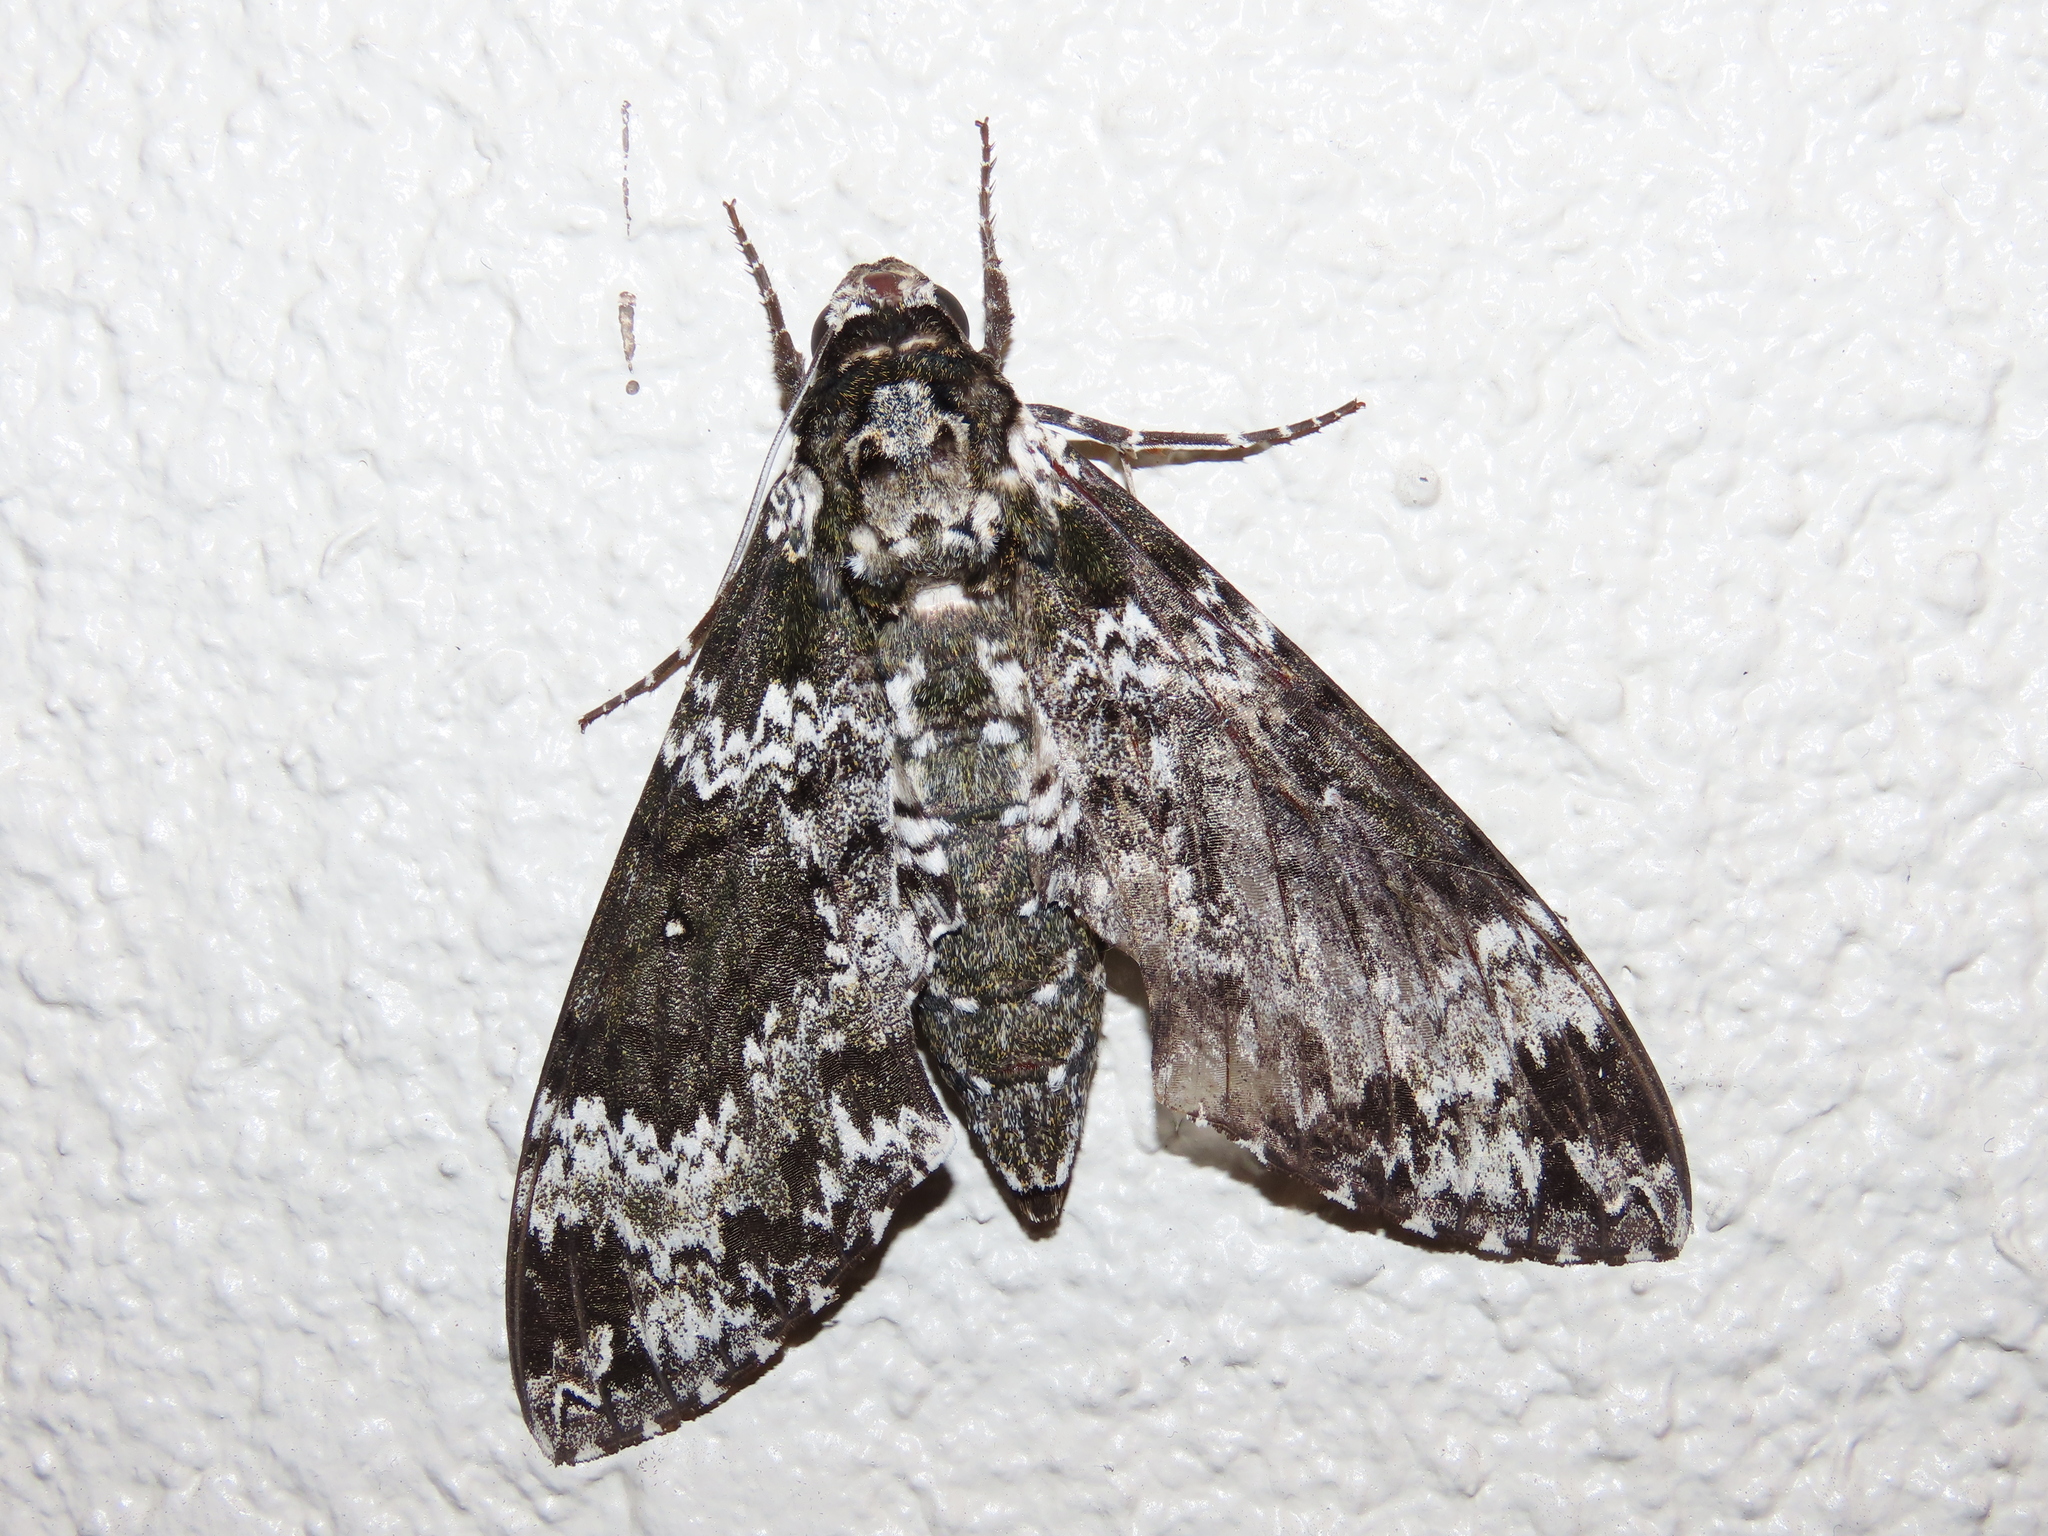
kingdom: Animalia
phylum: Arthropoda
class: Insecta
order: Lepidoptera
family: Sphingidae
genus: Manduca
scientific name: Manduca rustica
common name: Rustic sphinx
